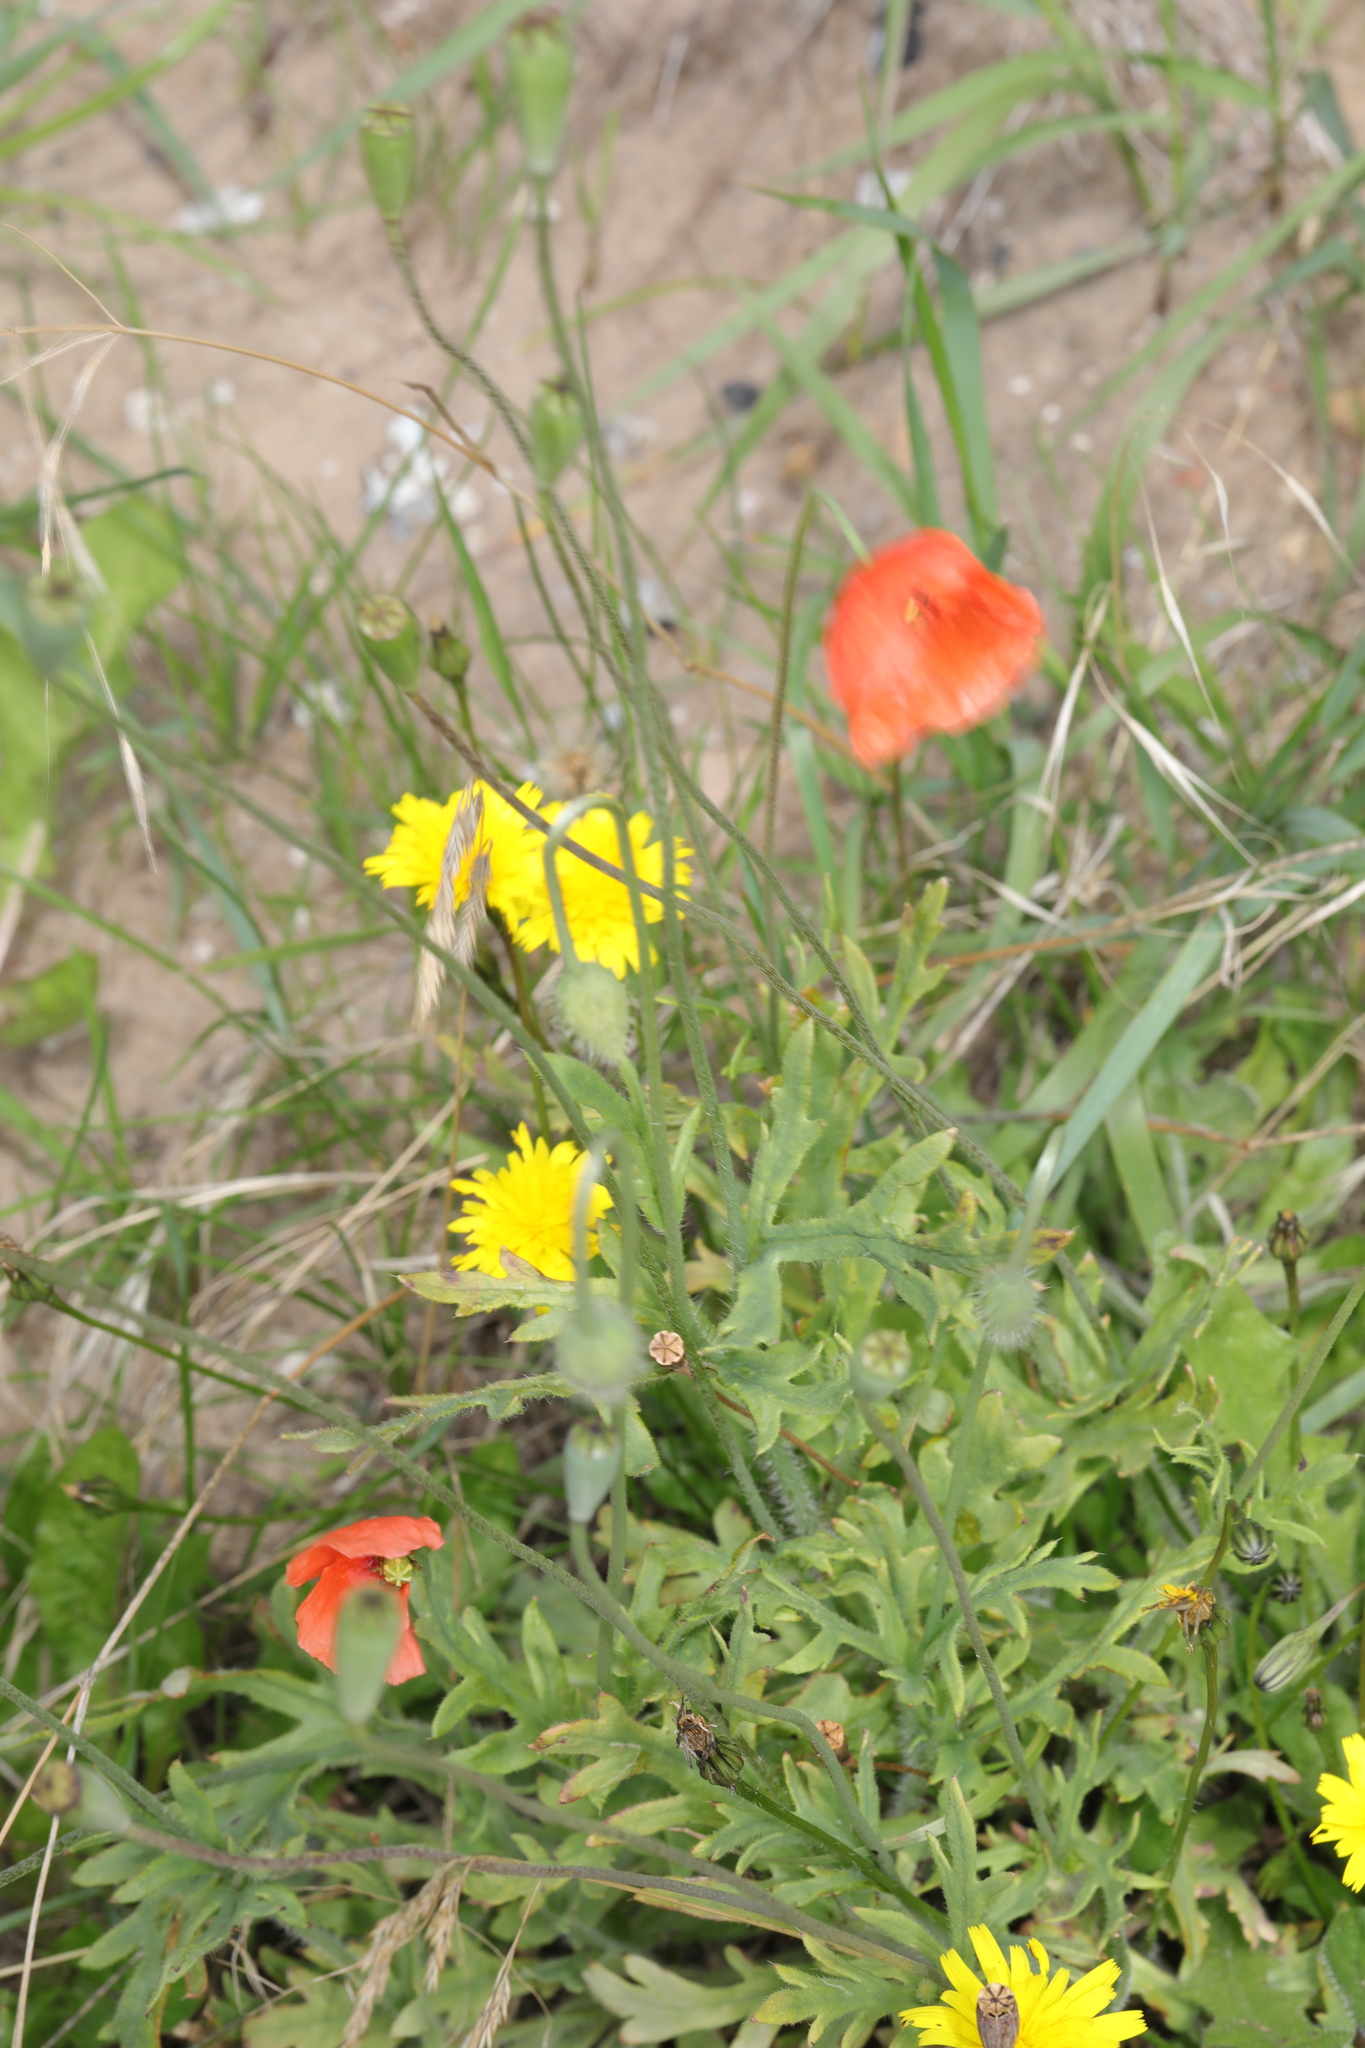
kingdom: Plantae
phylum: Tracheophyta
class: Magnoliopsida
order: Ranunculales
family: Papaveraceae
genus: Papaver
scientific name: Papaver dubium
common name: Long-headed poppy
